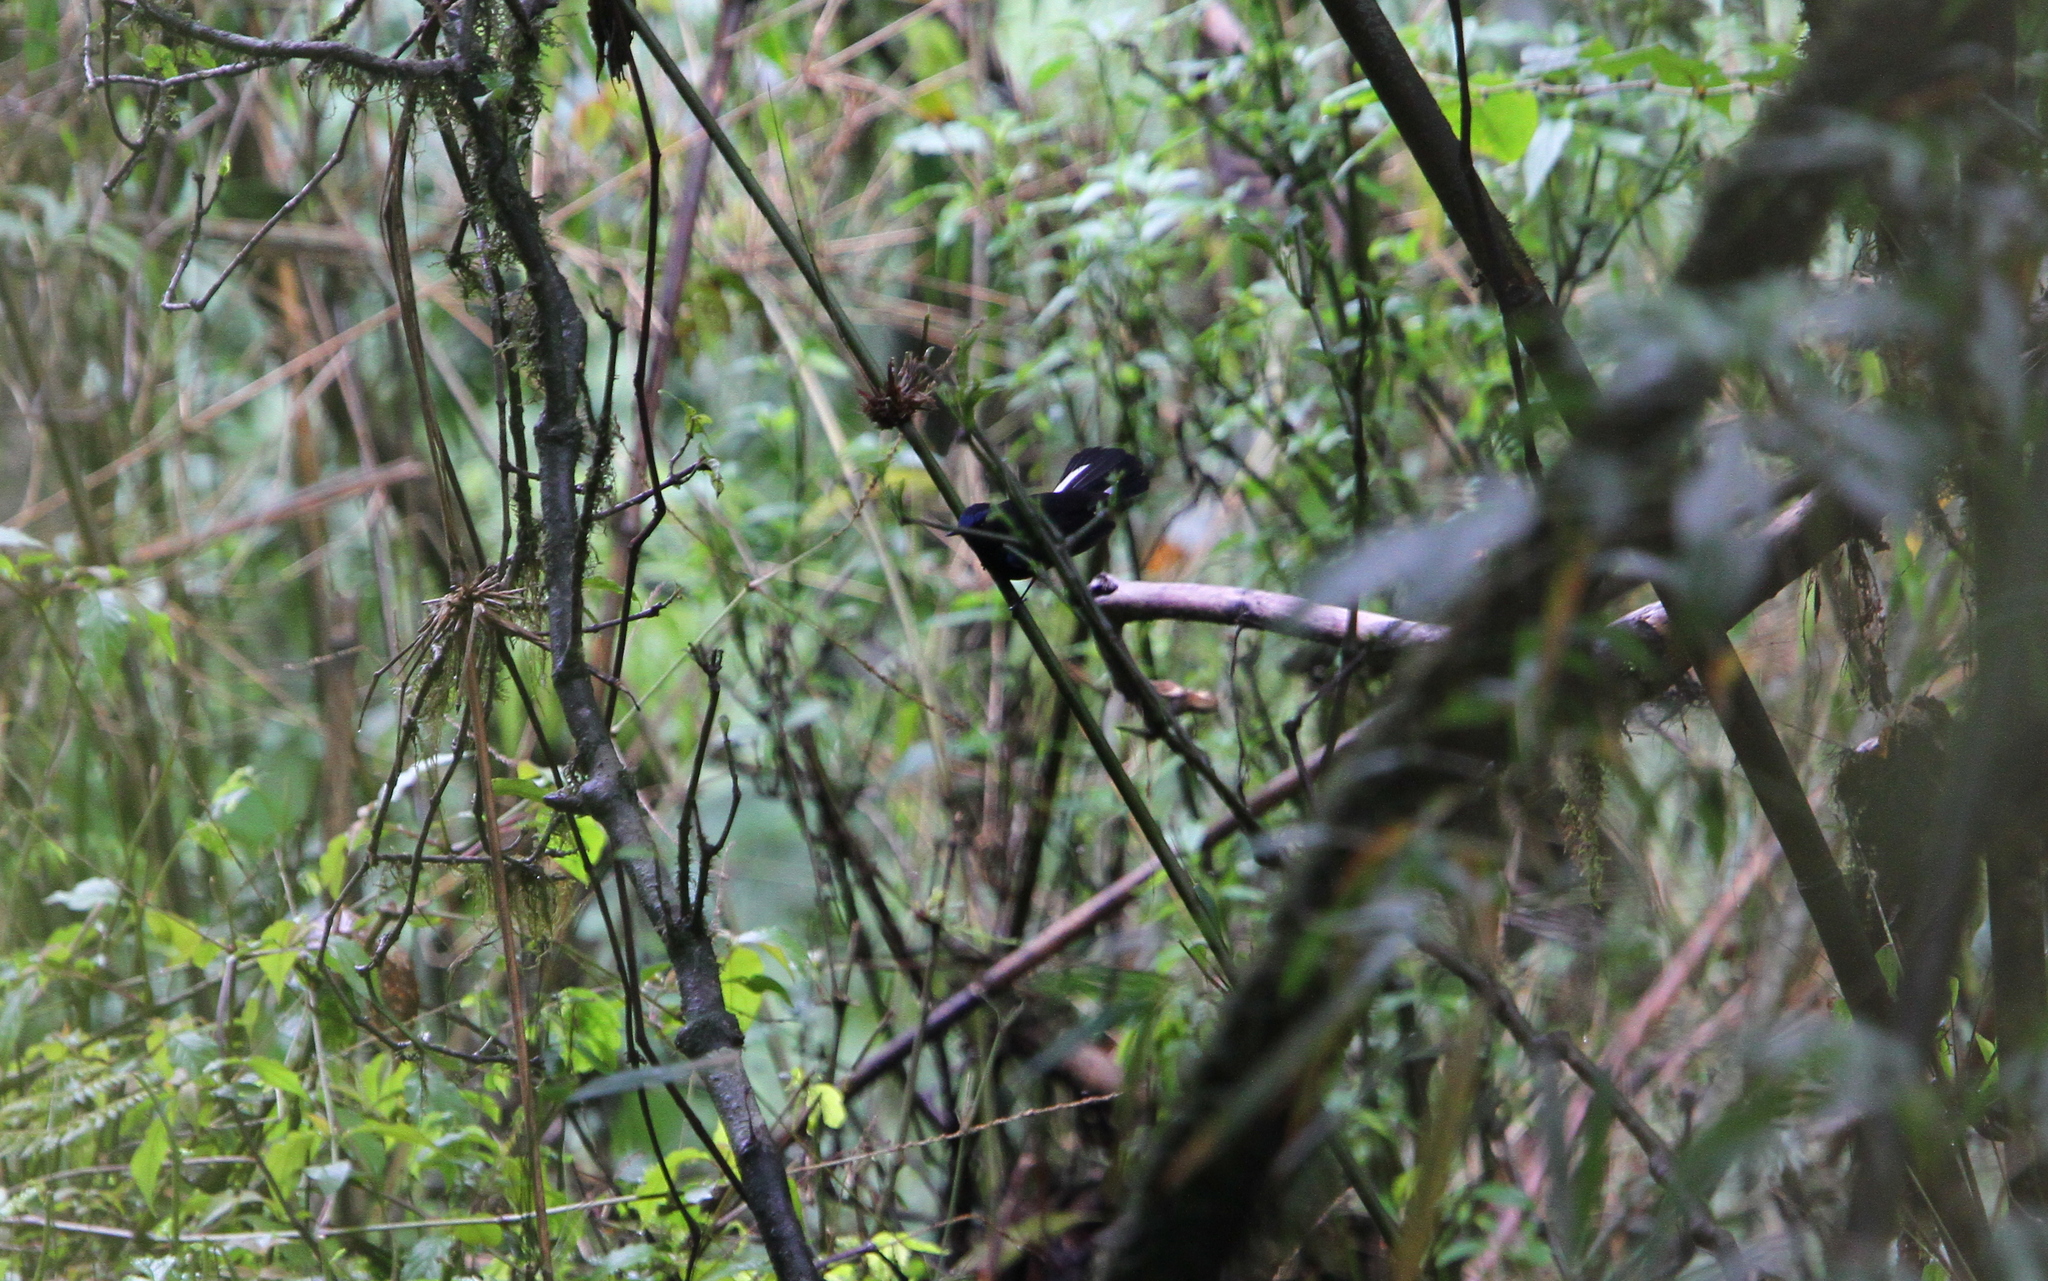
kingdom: Animalia
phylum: Chordata
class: Aves
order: Passeriformes
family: Muscicapidae
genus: Myiomela
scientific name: Myiomela leucura
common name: White-tailed robin
